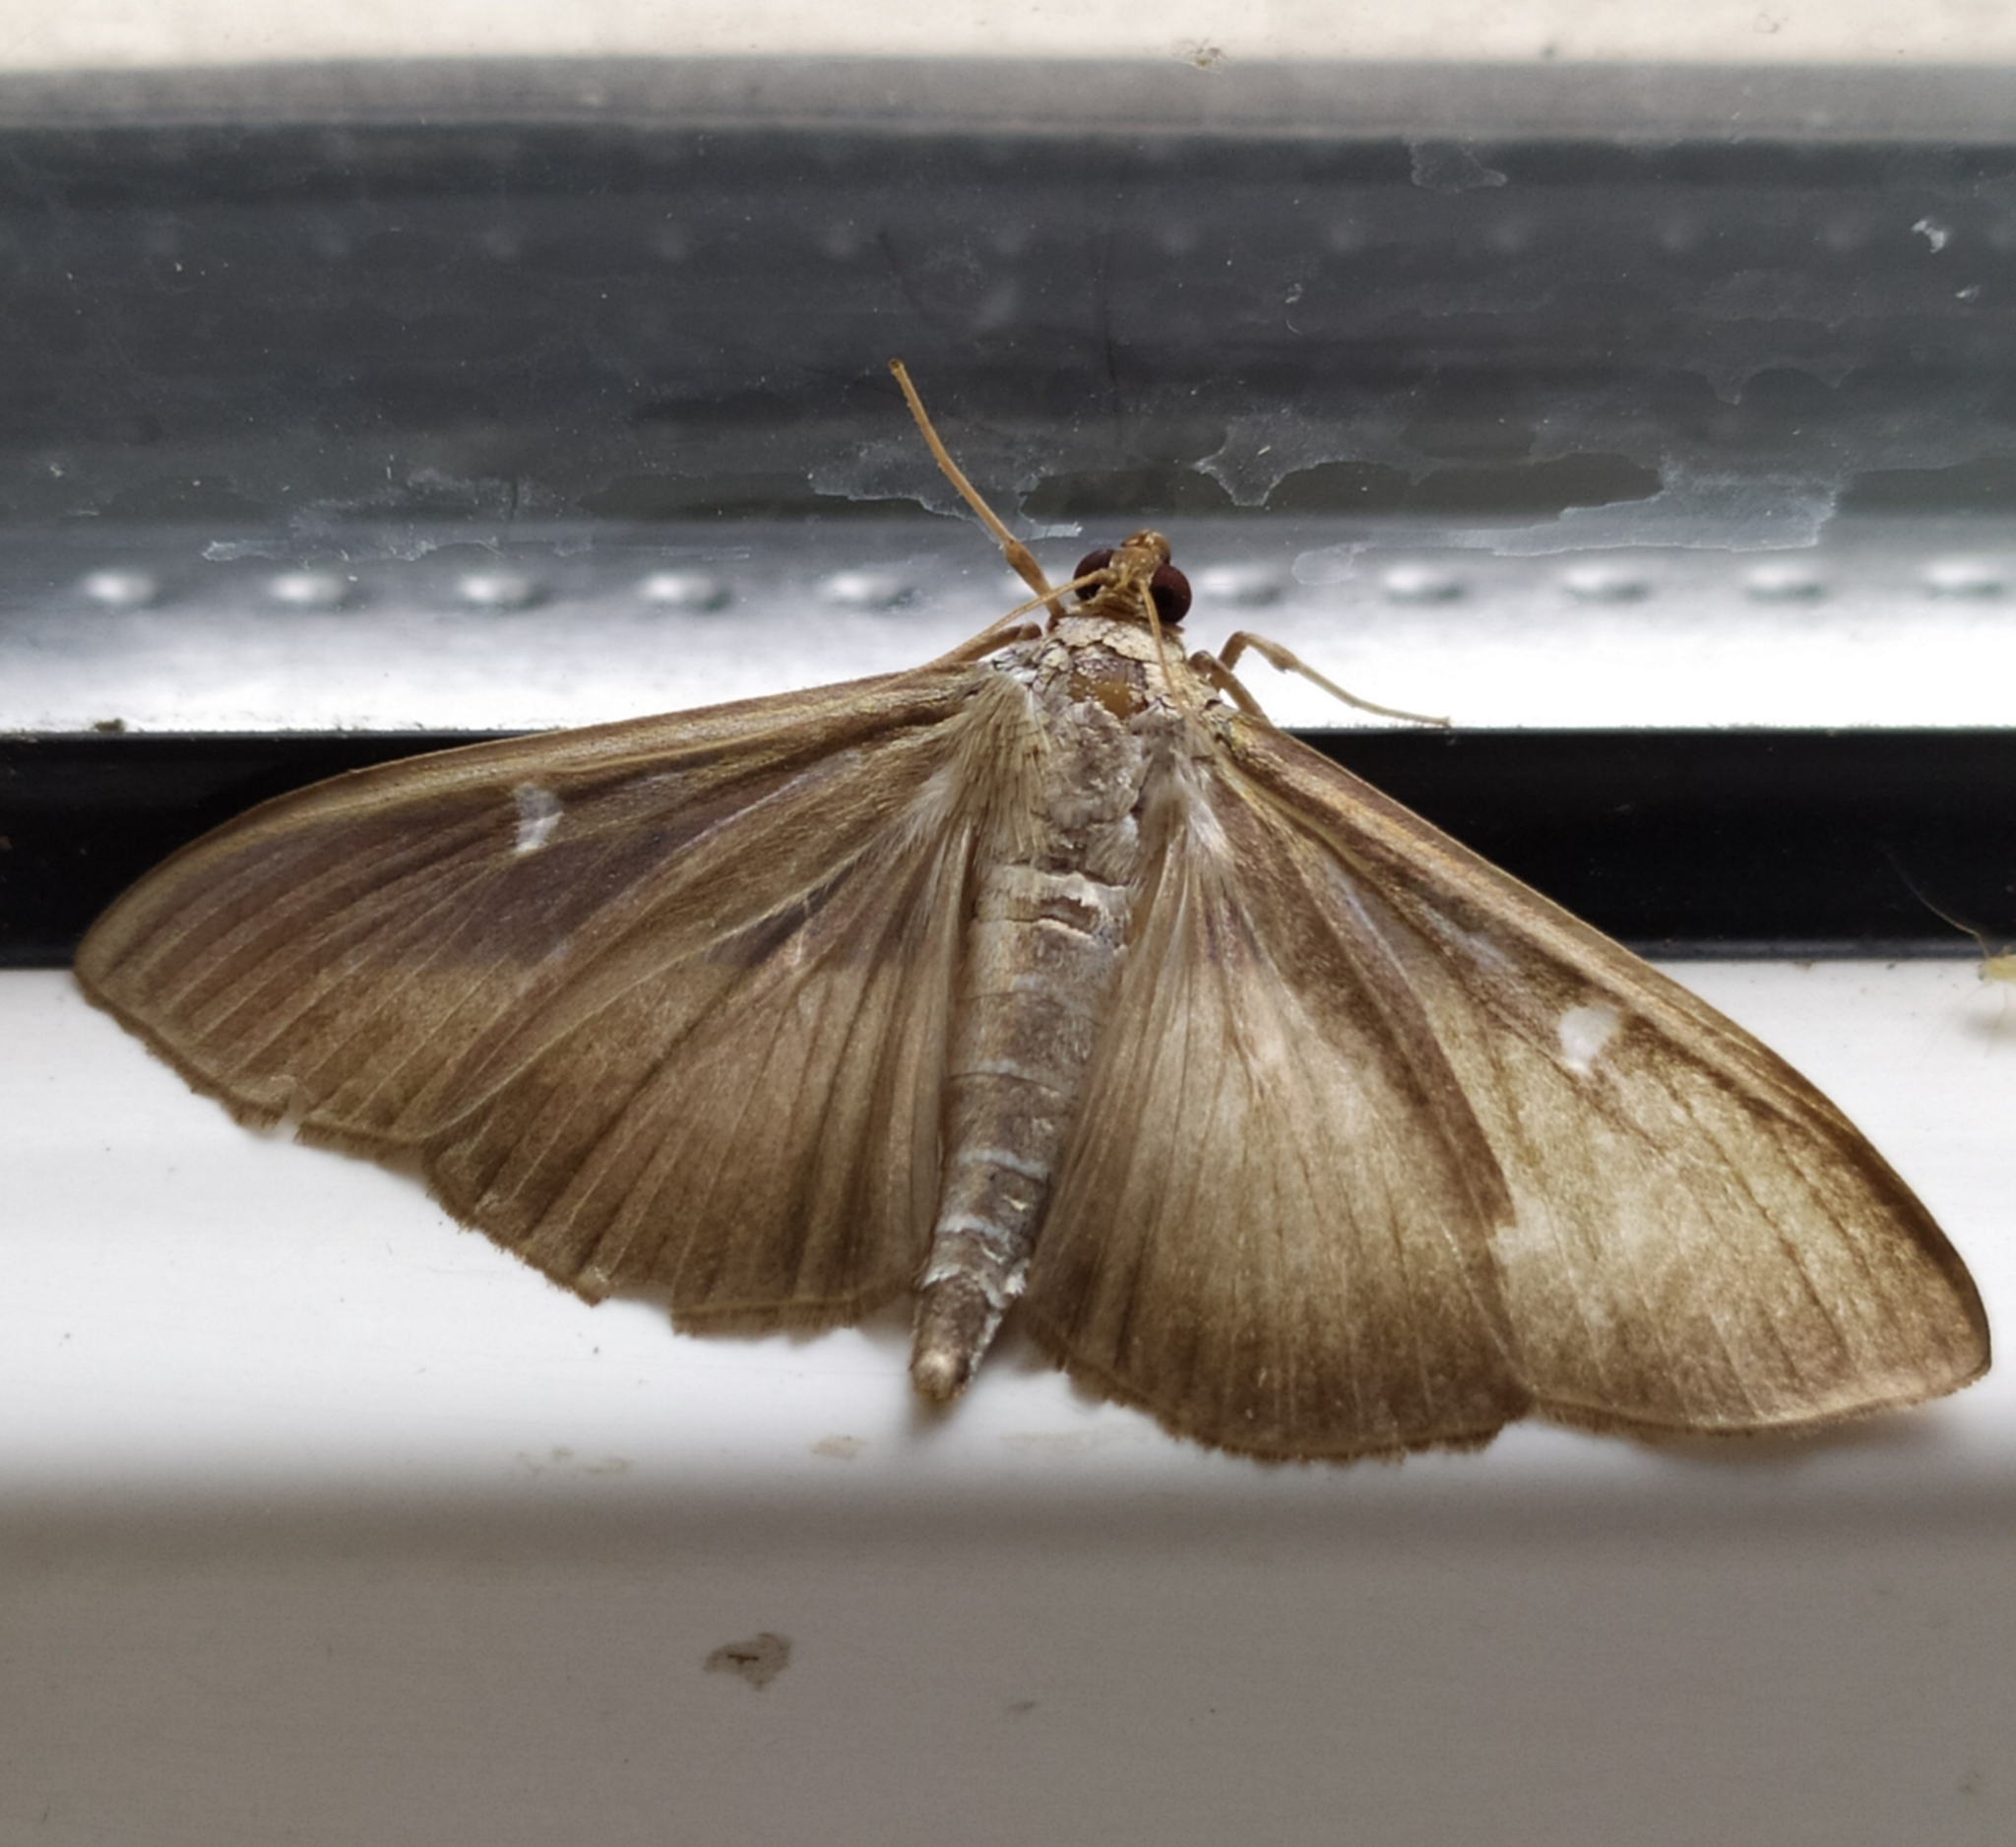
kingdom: Animalia
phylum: Arthropoda
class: Insecta
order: Lepidoptera
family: Crambidae
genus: Cydalima
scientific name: Cydalima perspectalis
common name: Box tree moth
